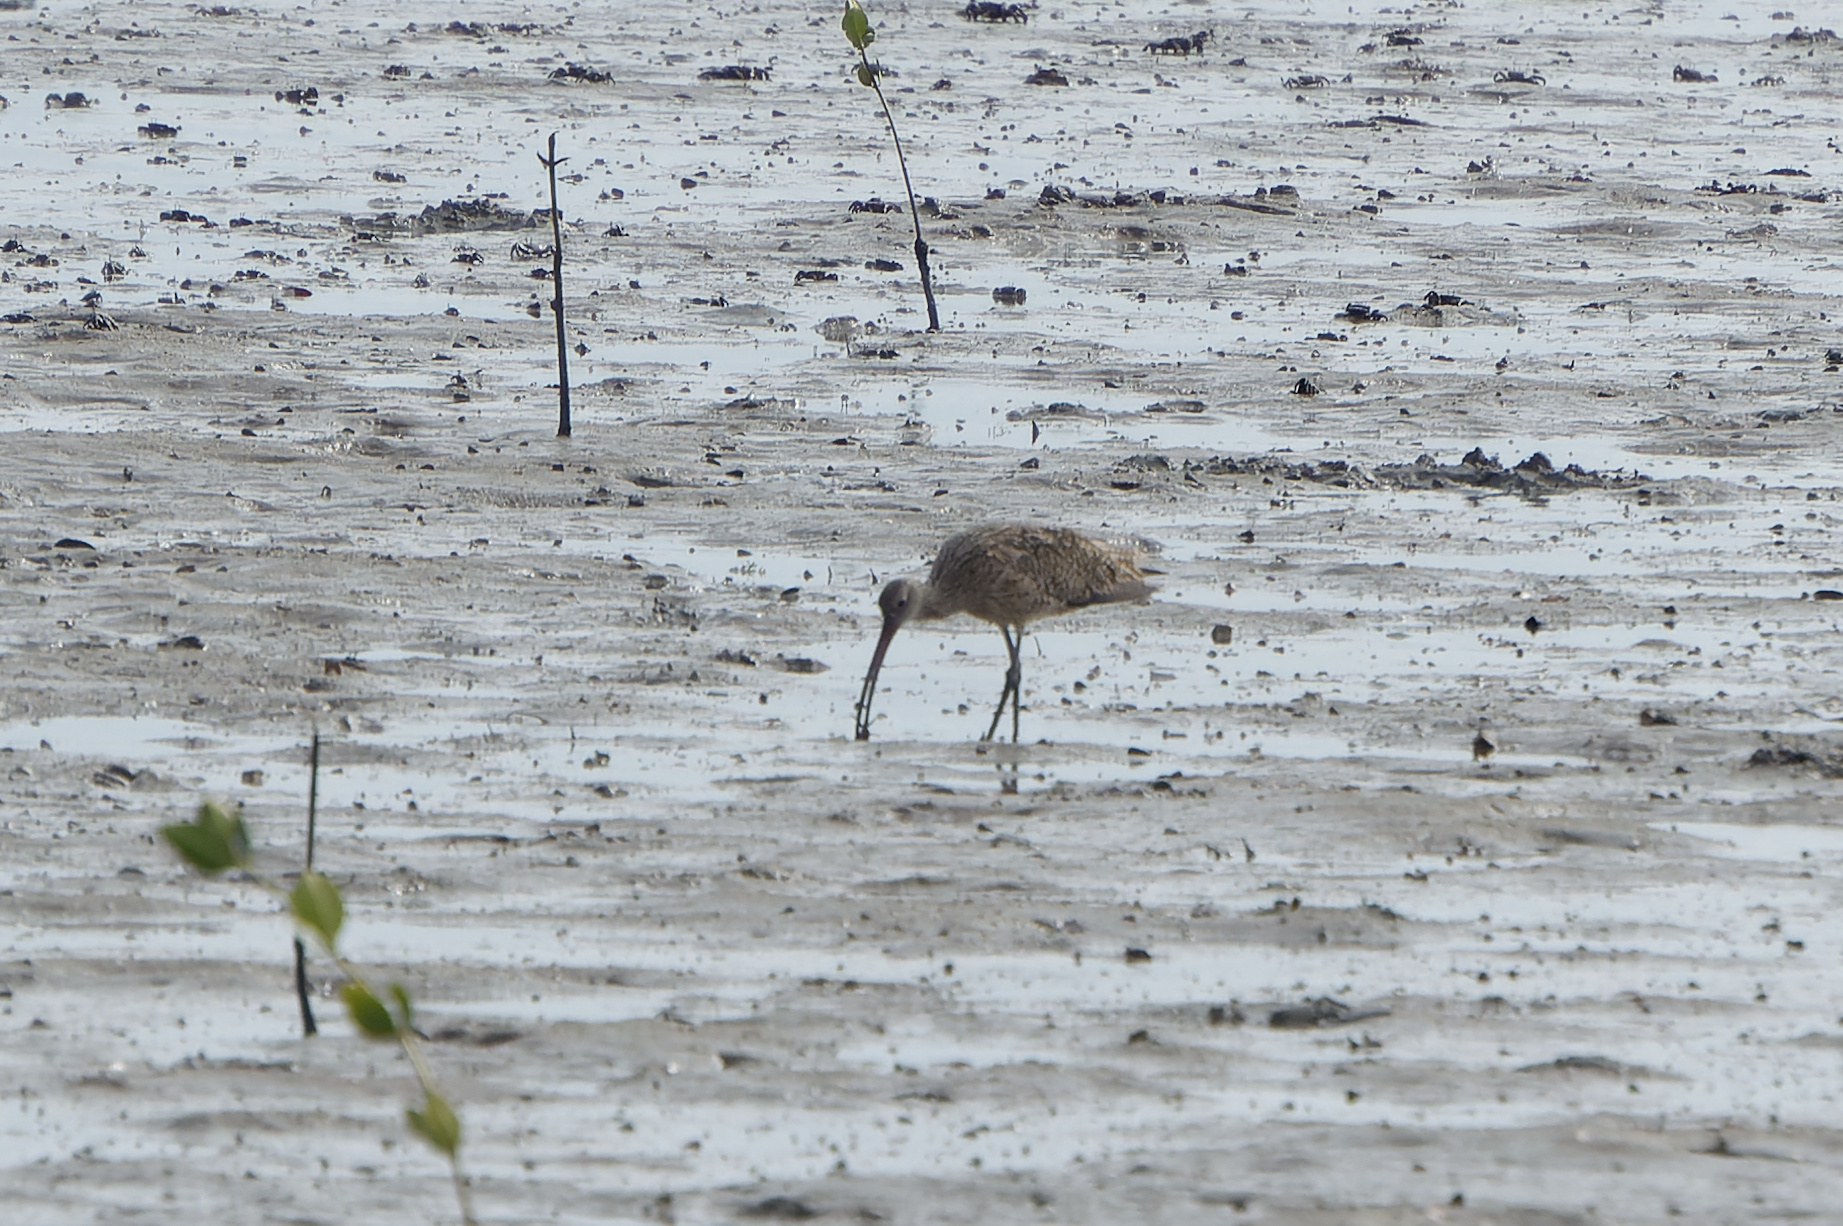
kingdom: Animalia
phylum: Chordata
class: Aves
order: Charadriiformes
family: Scolopacidae
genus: Numenius
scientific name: Numenius madagascariensis
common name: Far eastern curlew
